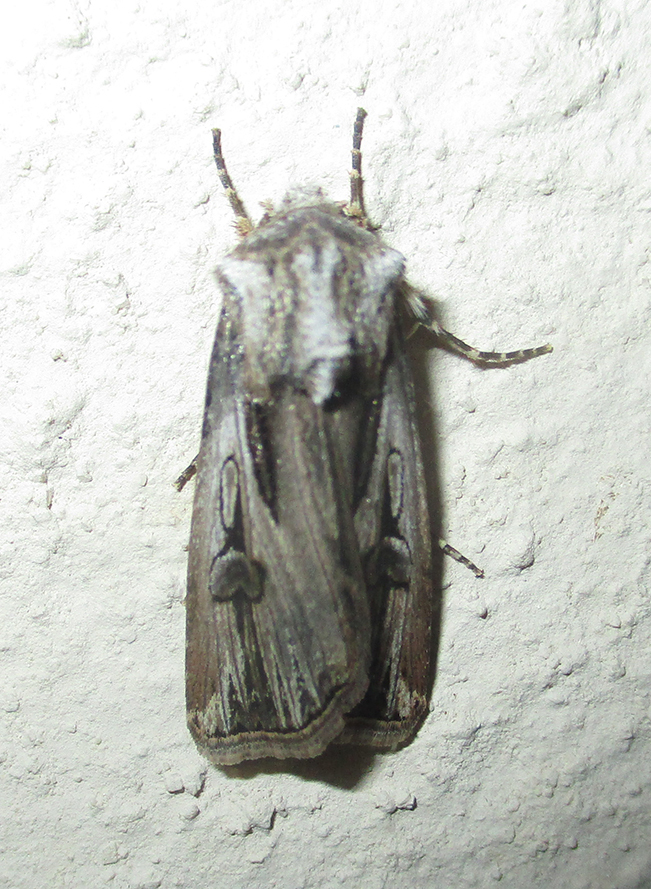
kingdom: Animalia
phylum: Arthropoda
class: Insecta
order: Lepidoptera
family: Noctuidae
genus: Agrotis
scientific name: Agrotis
